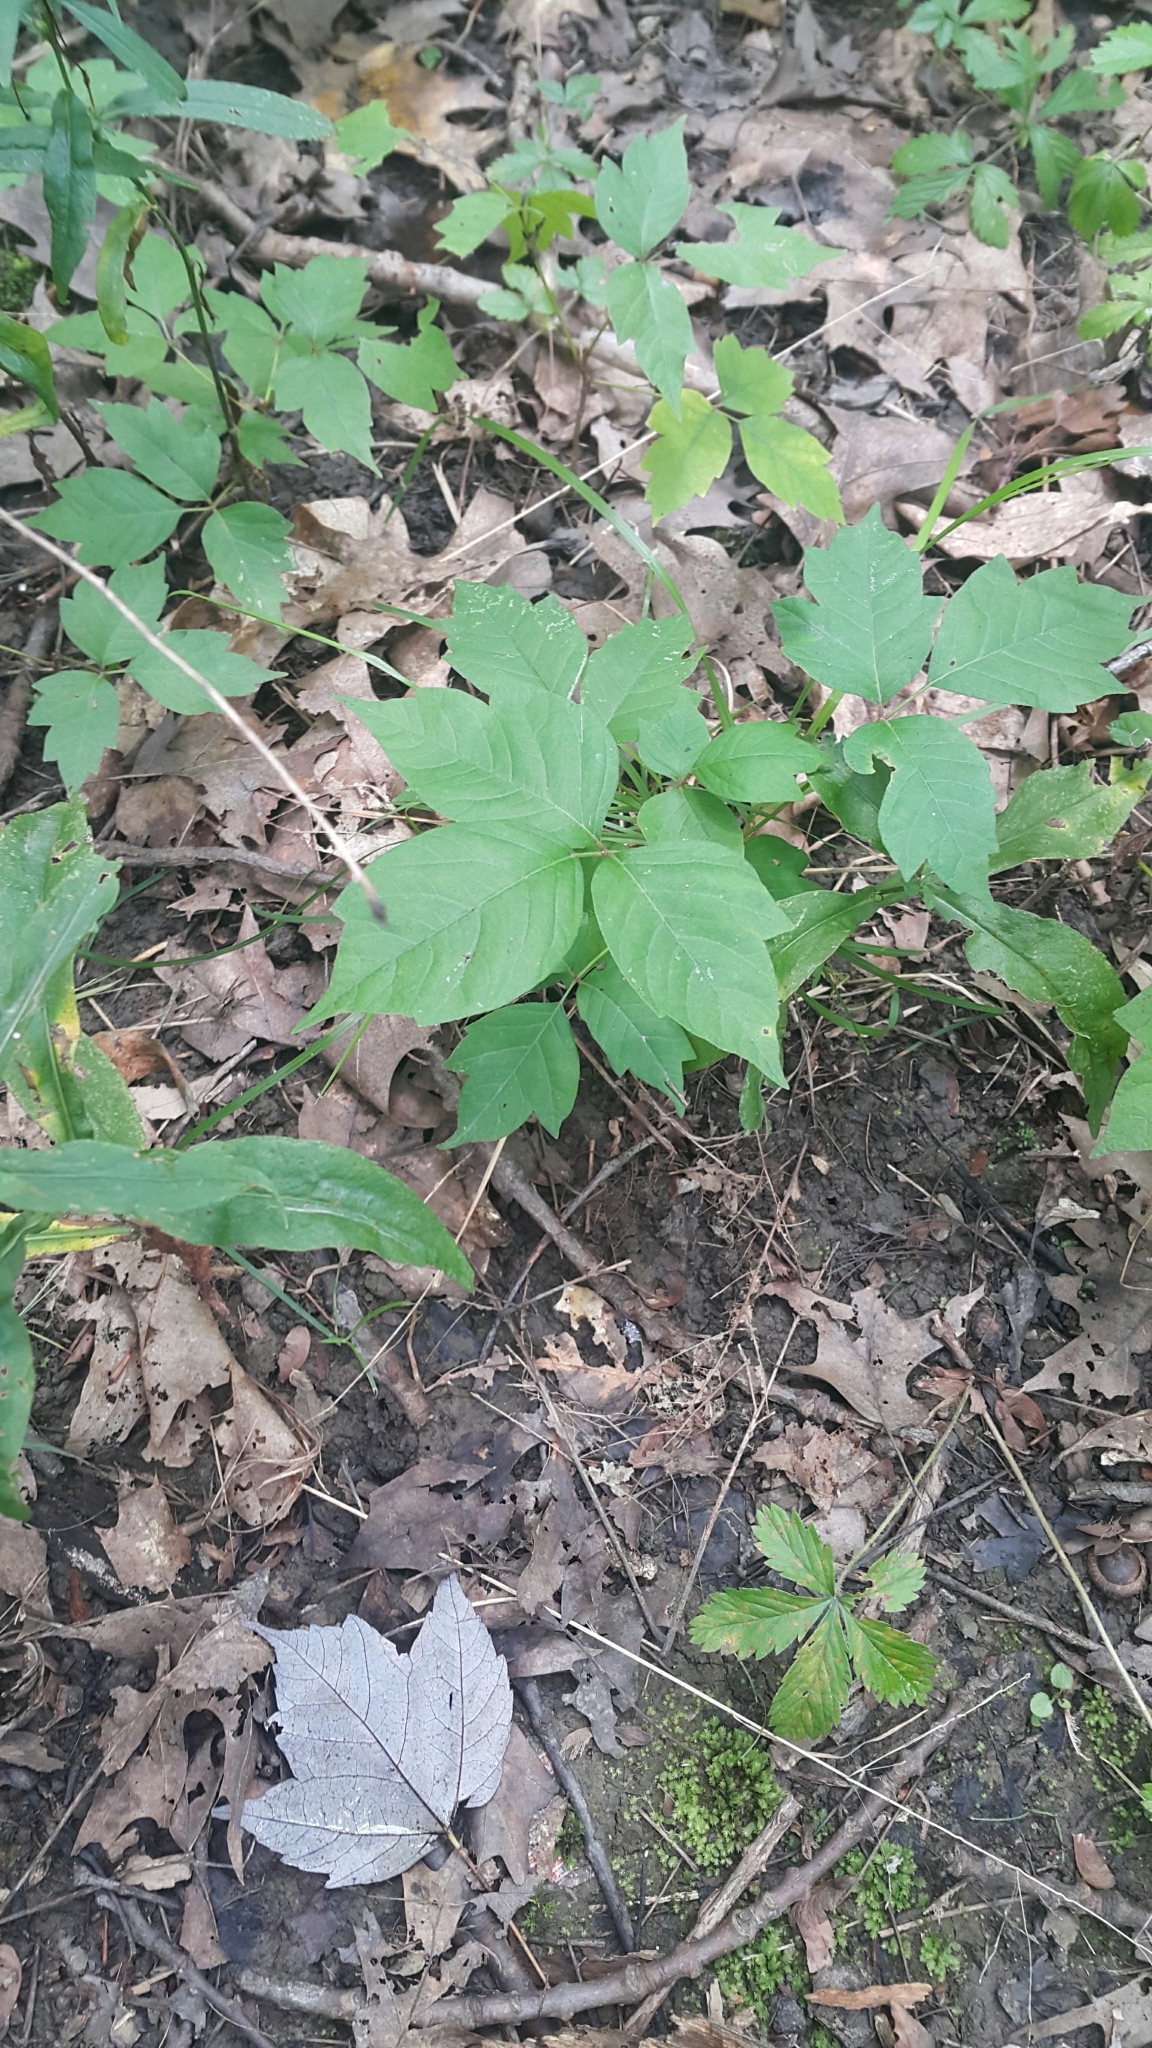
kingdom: Plantae
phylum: Tracheophyta
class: Magnoliopsida
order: Sapindales
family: Anacardiaceae
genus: Toxicodendron
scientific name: Toxicodendron radicans
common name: Poison ivy
